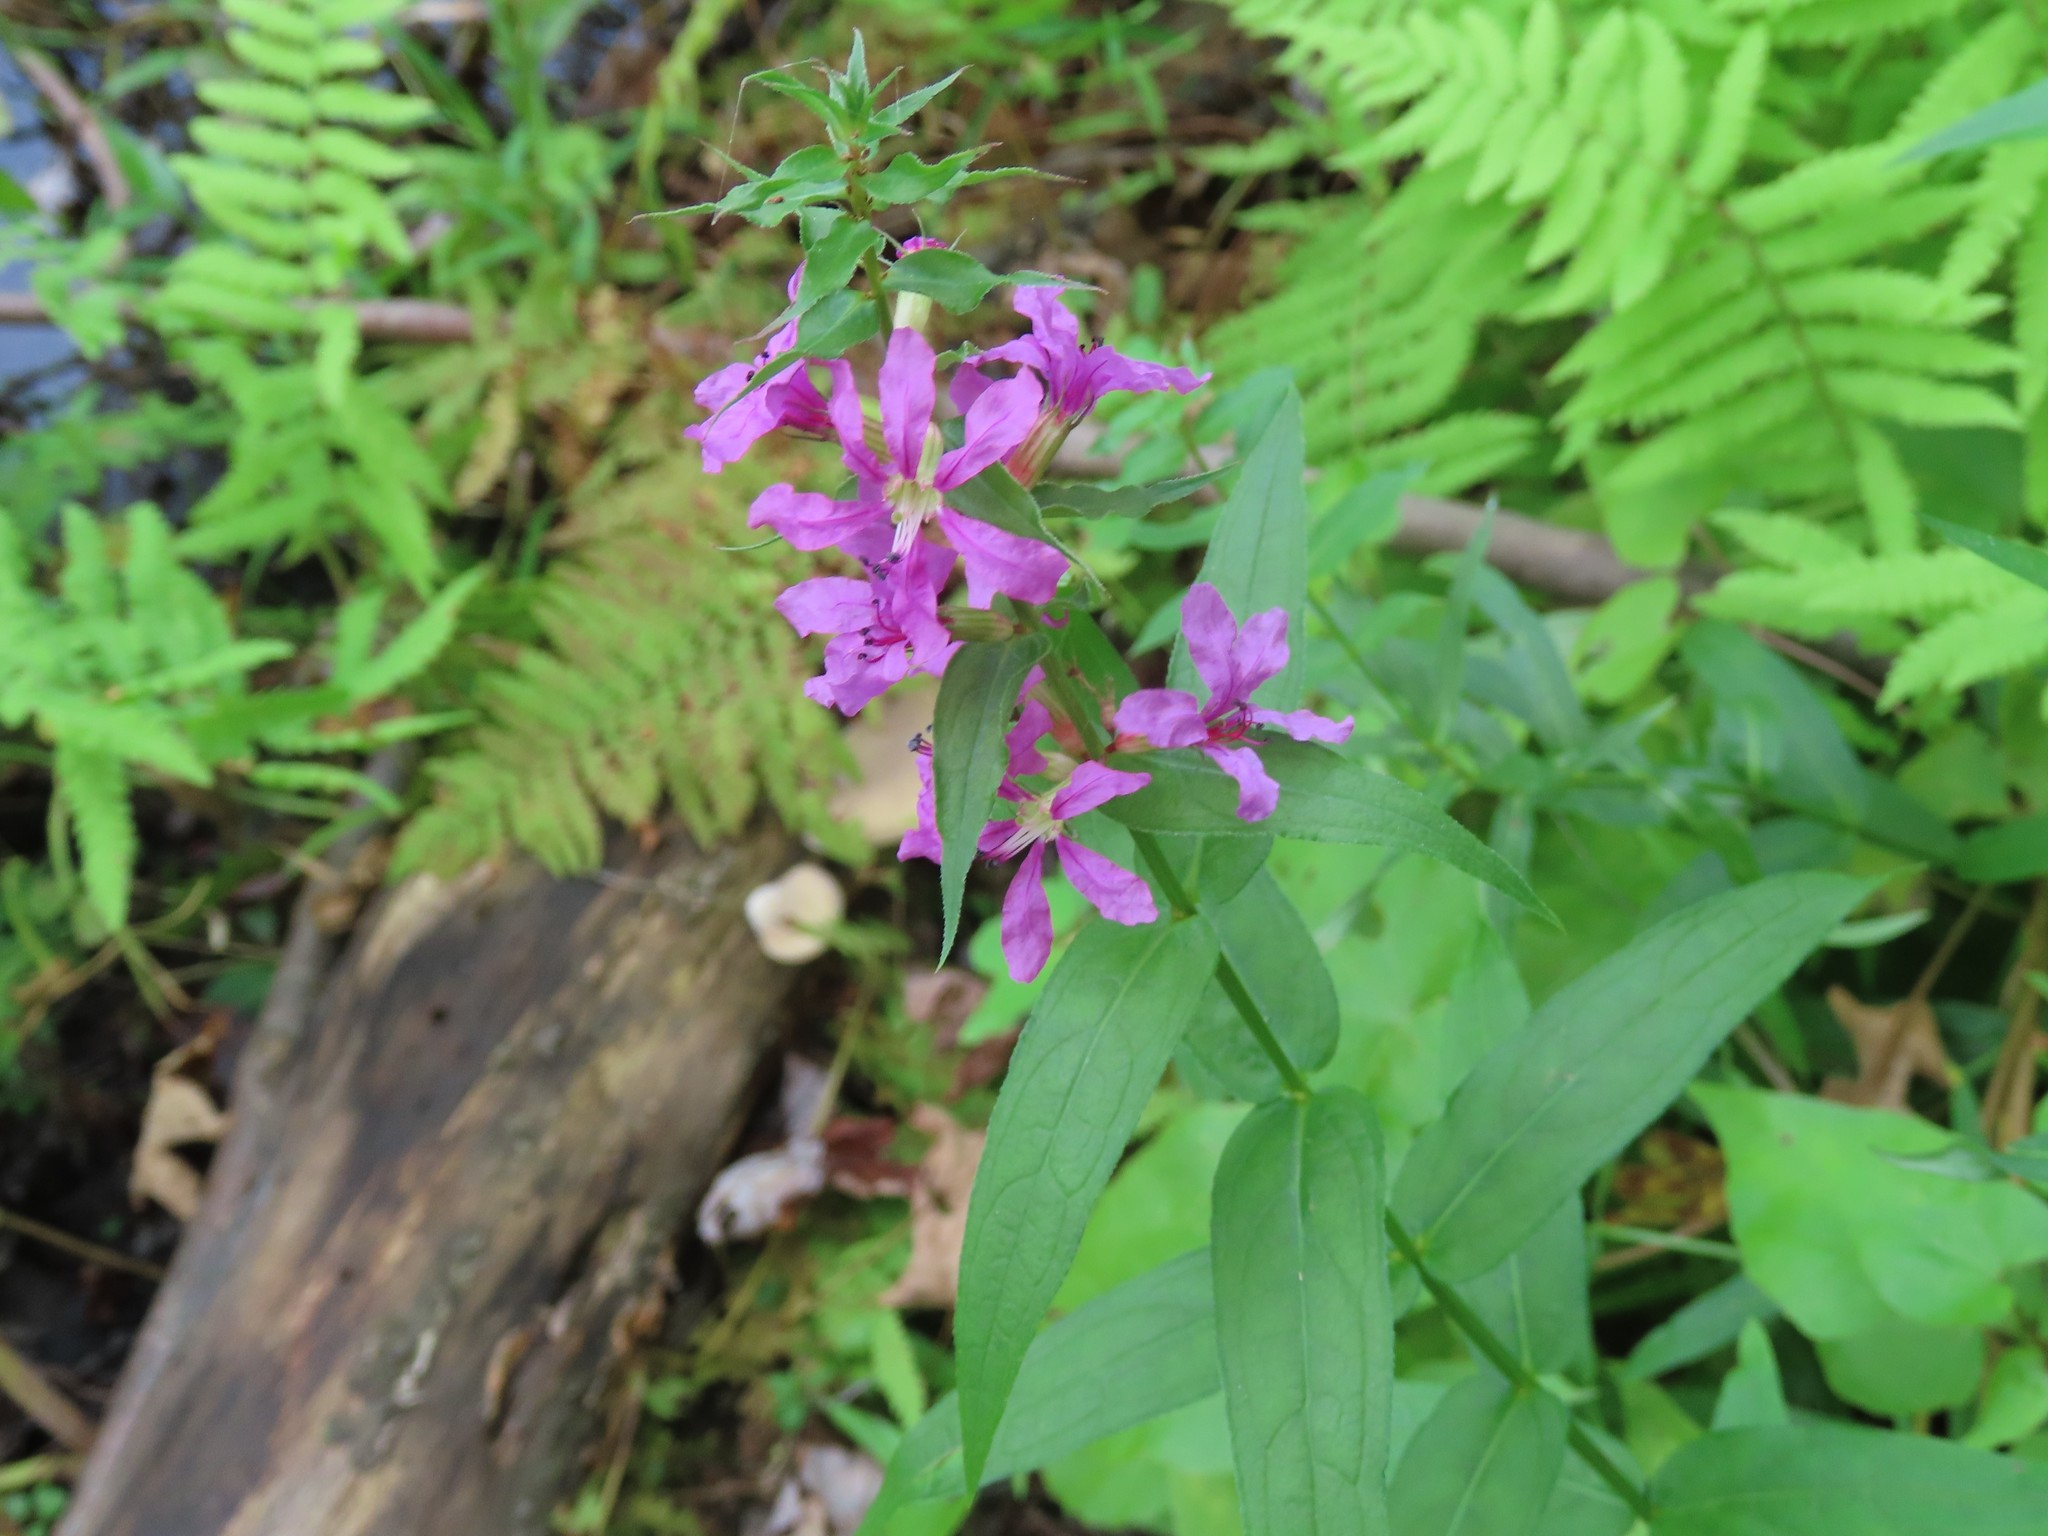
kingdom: Plantae
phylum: Tracheophyta
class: Magnoliopsida
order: Myrtales
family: Lythraceae
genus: Lythrum
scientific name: Lythrum salicaria
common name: Purple loosestrife
